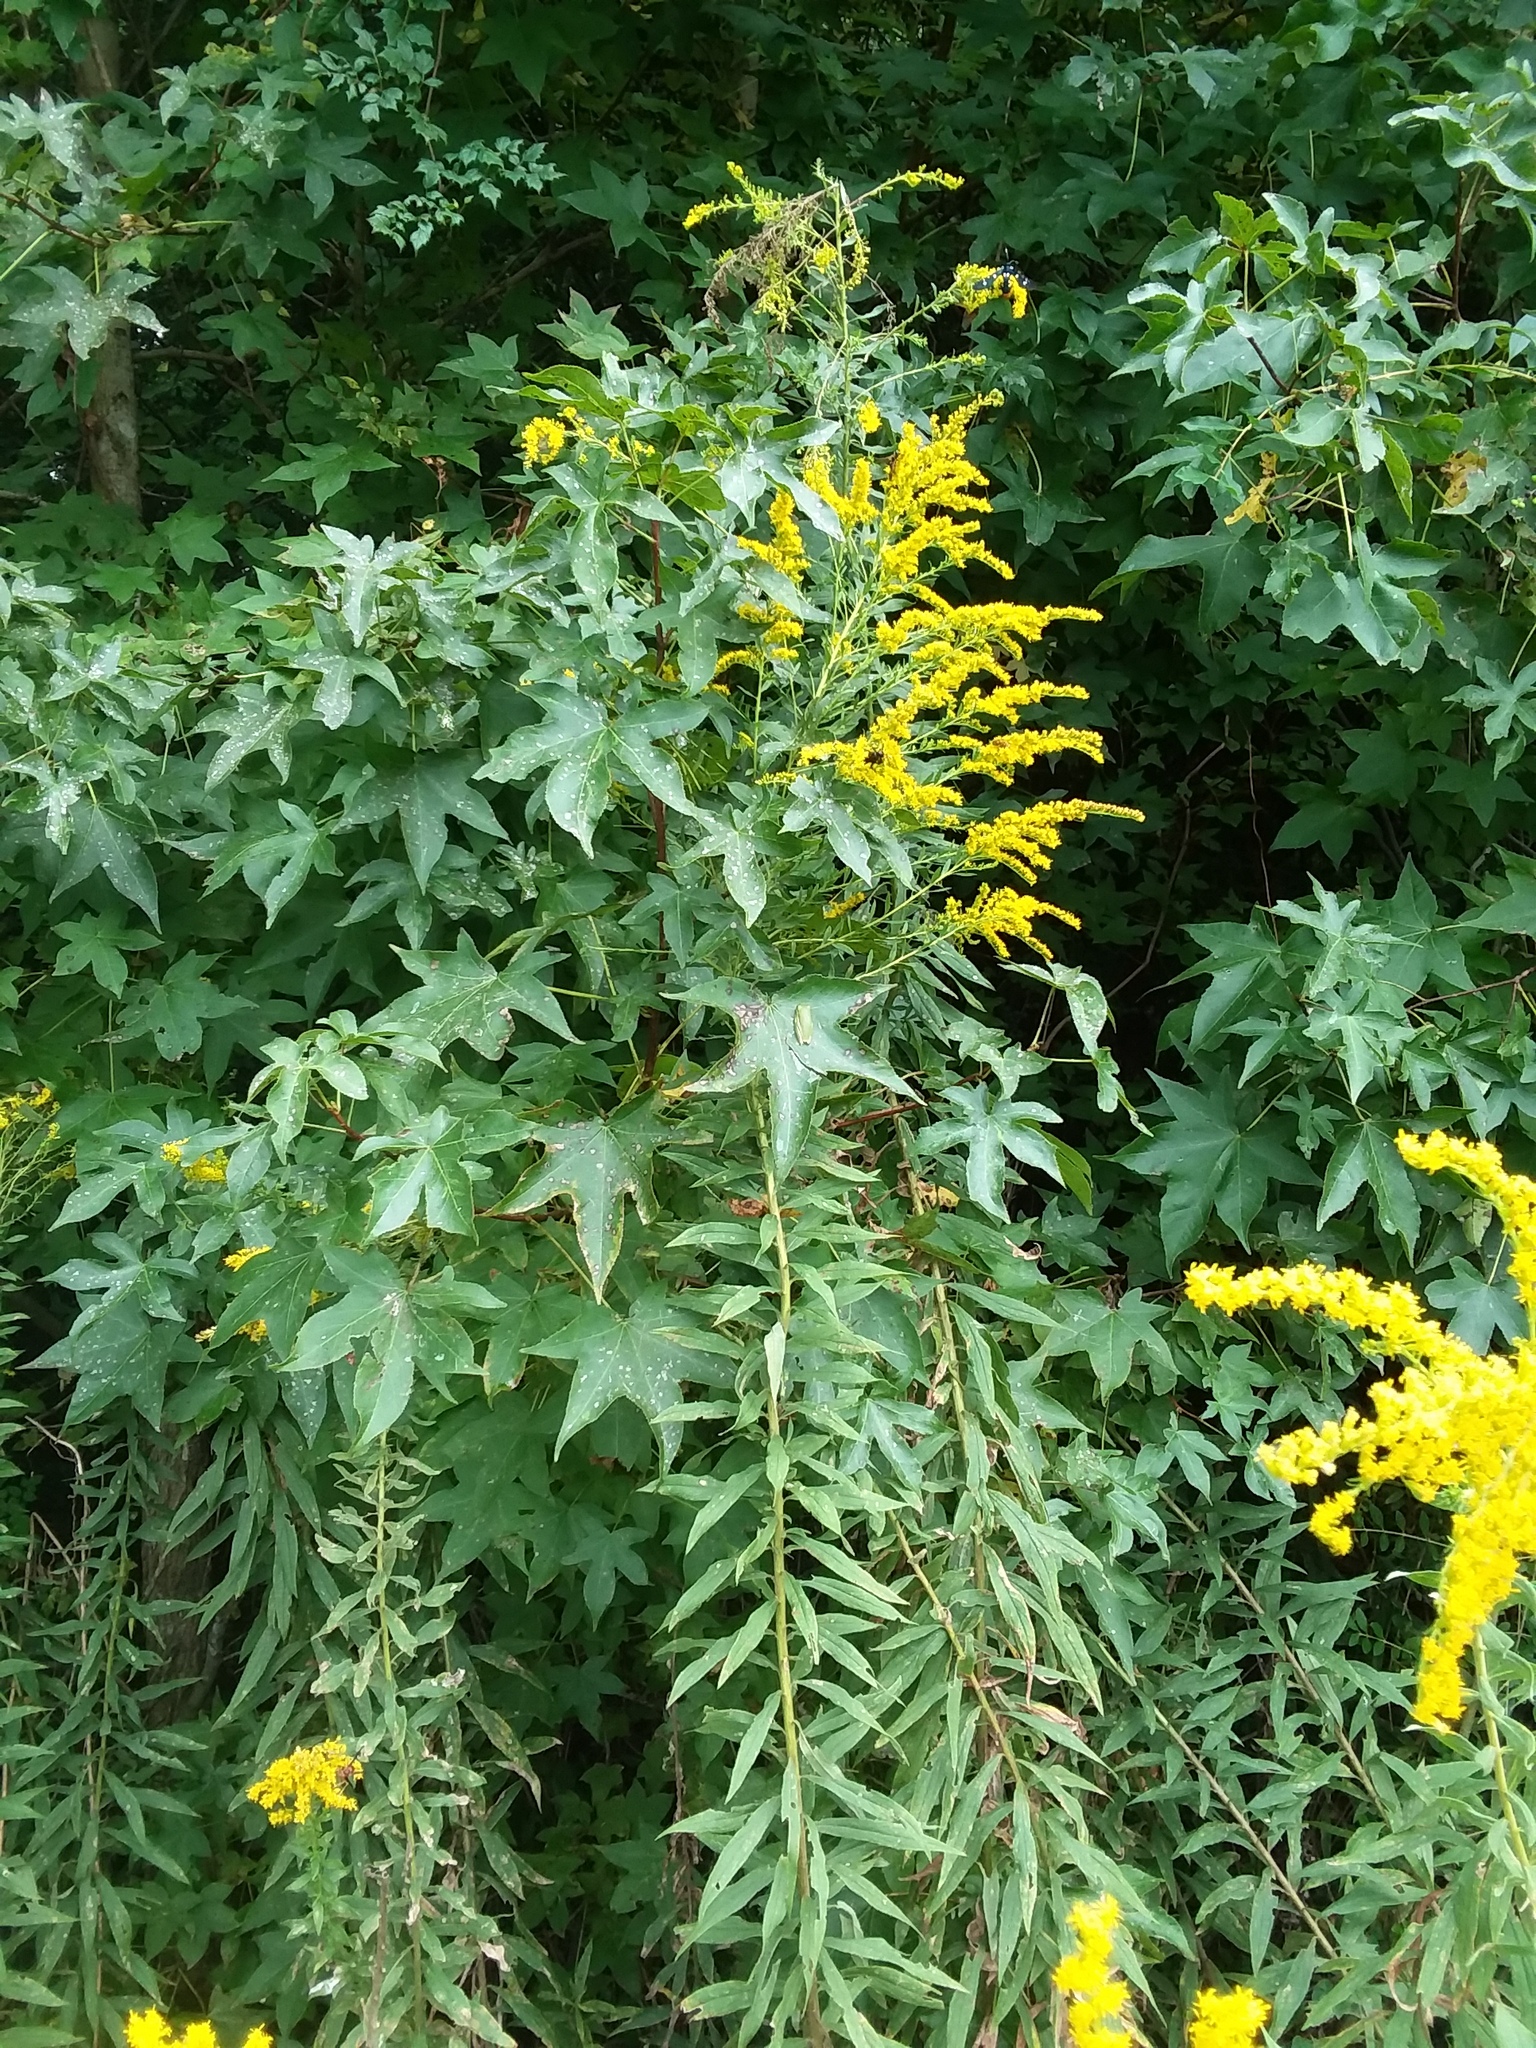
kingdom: Plantae
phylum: Tracheophyta
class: Magnoliopsida
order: Saxifragales
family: Altingiaceae
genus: Liquidambar
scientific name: Liquidambar styraciflua
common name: Sweet gum
